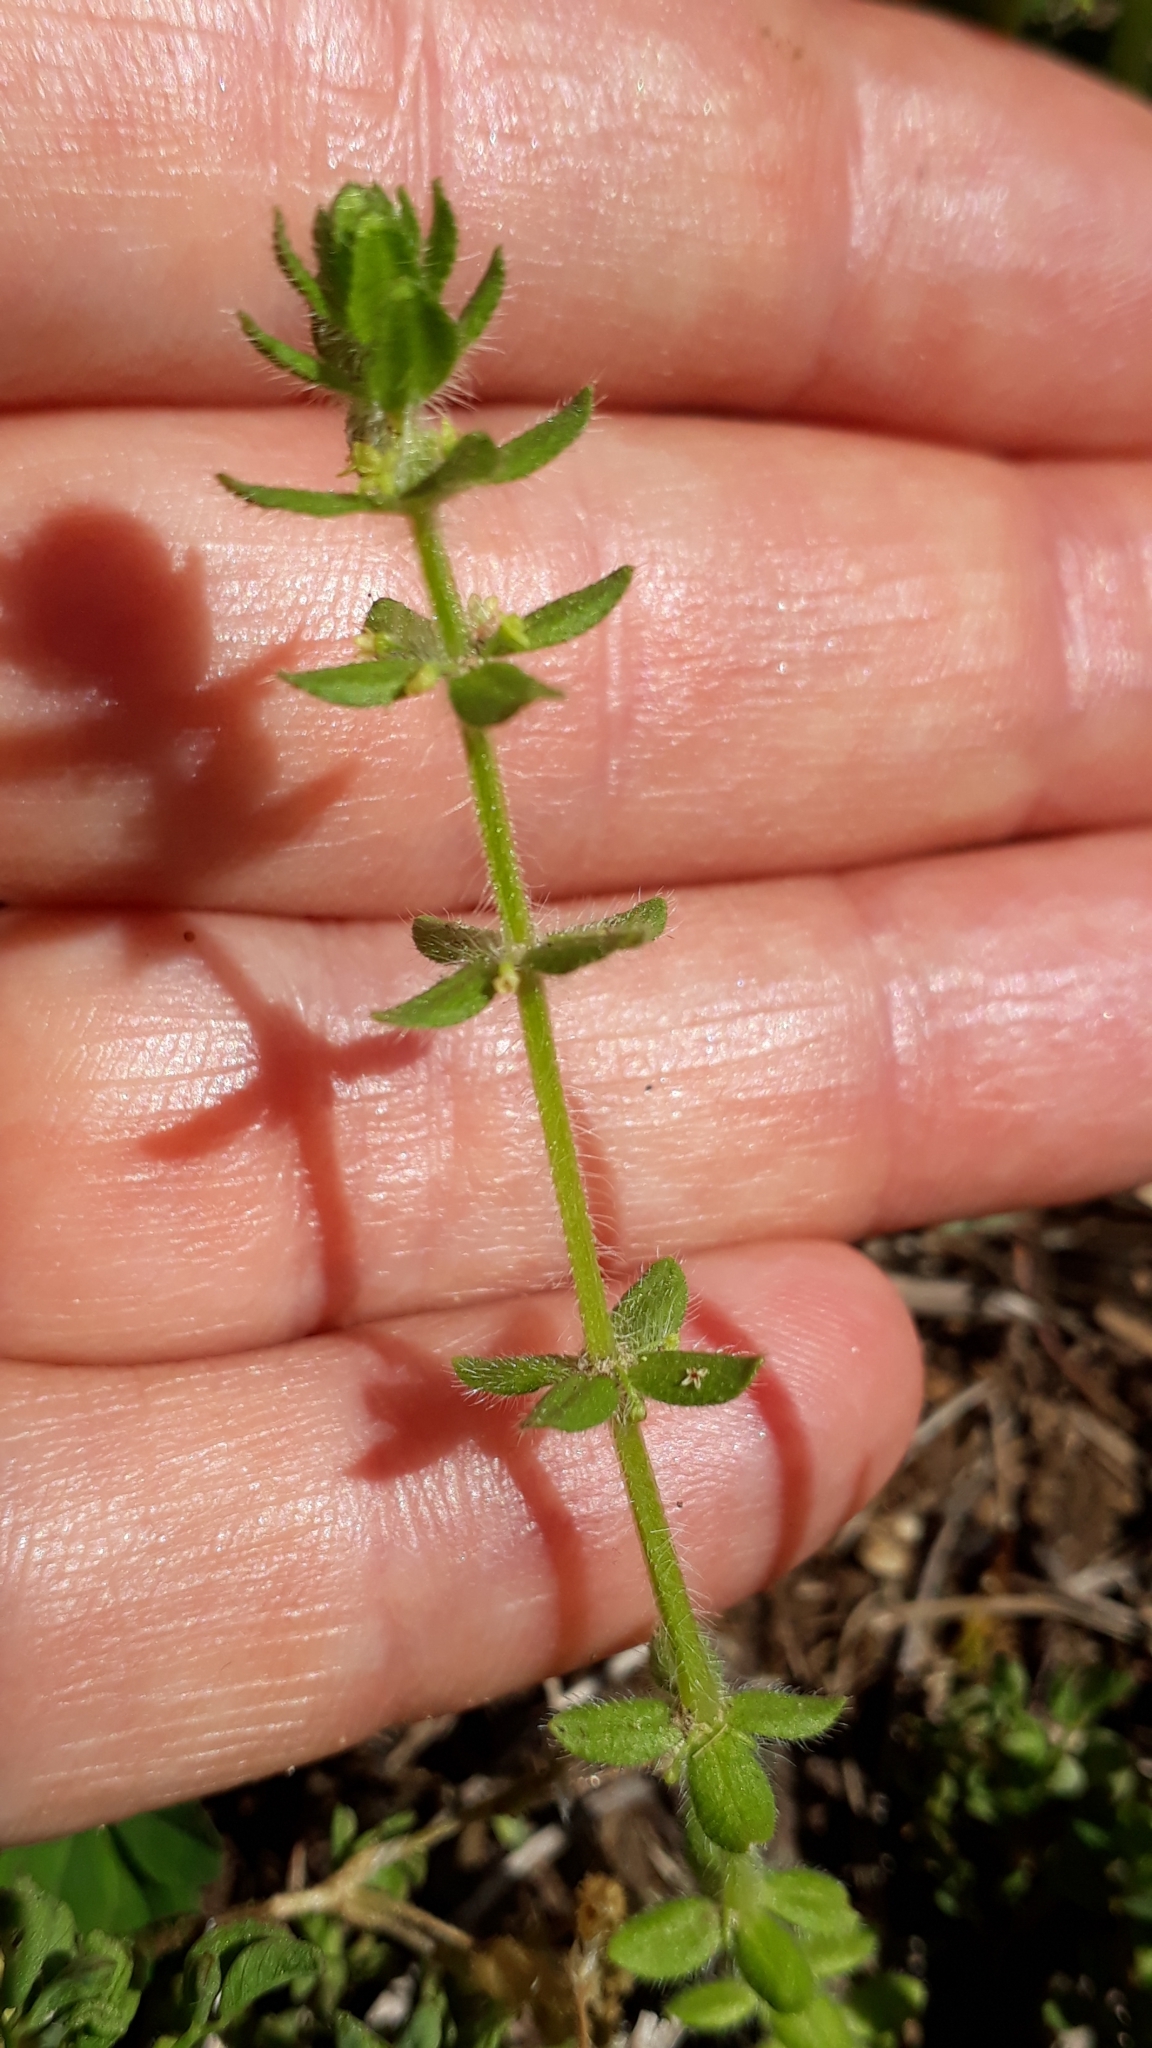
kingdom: Plantae
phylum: Tracheophyta
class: Magnoliopsida
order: Gentianales
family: Rubiaceae
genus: Cruciata
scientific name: Cruciata pedemontana
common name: Piedmont bedstraw
